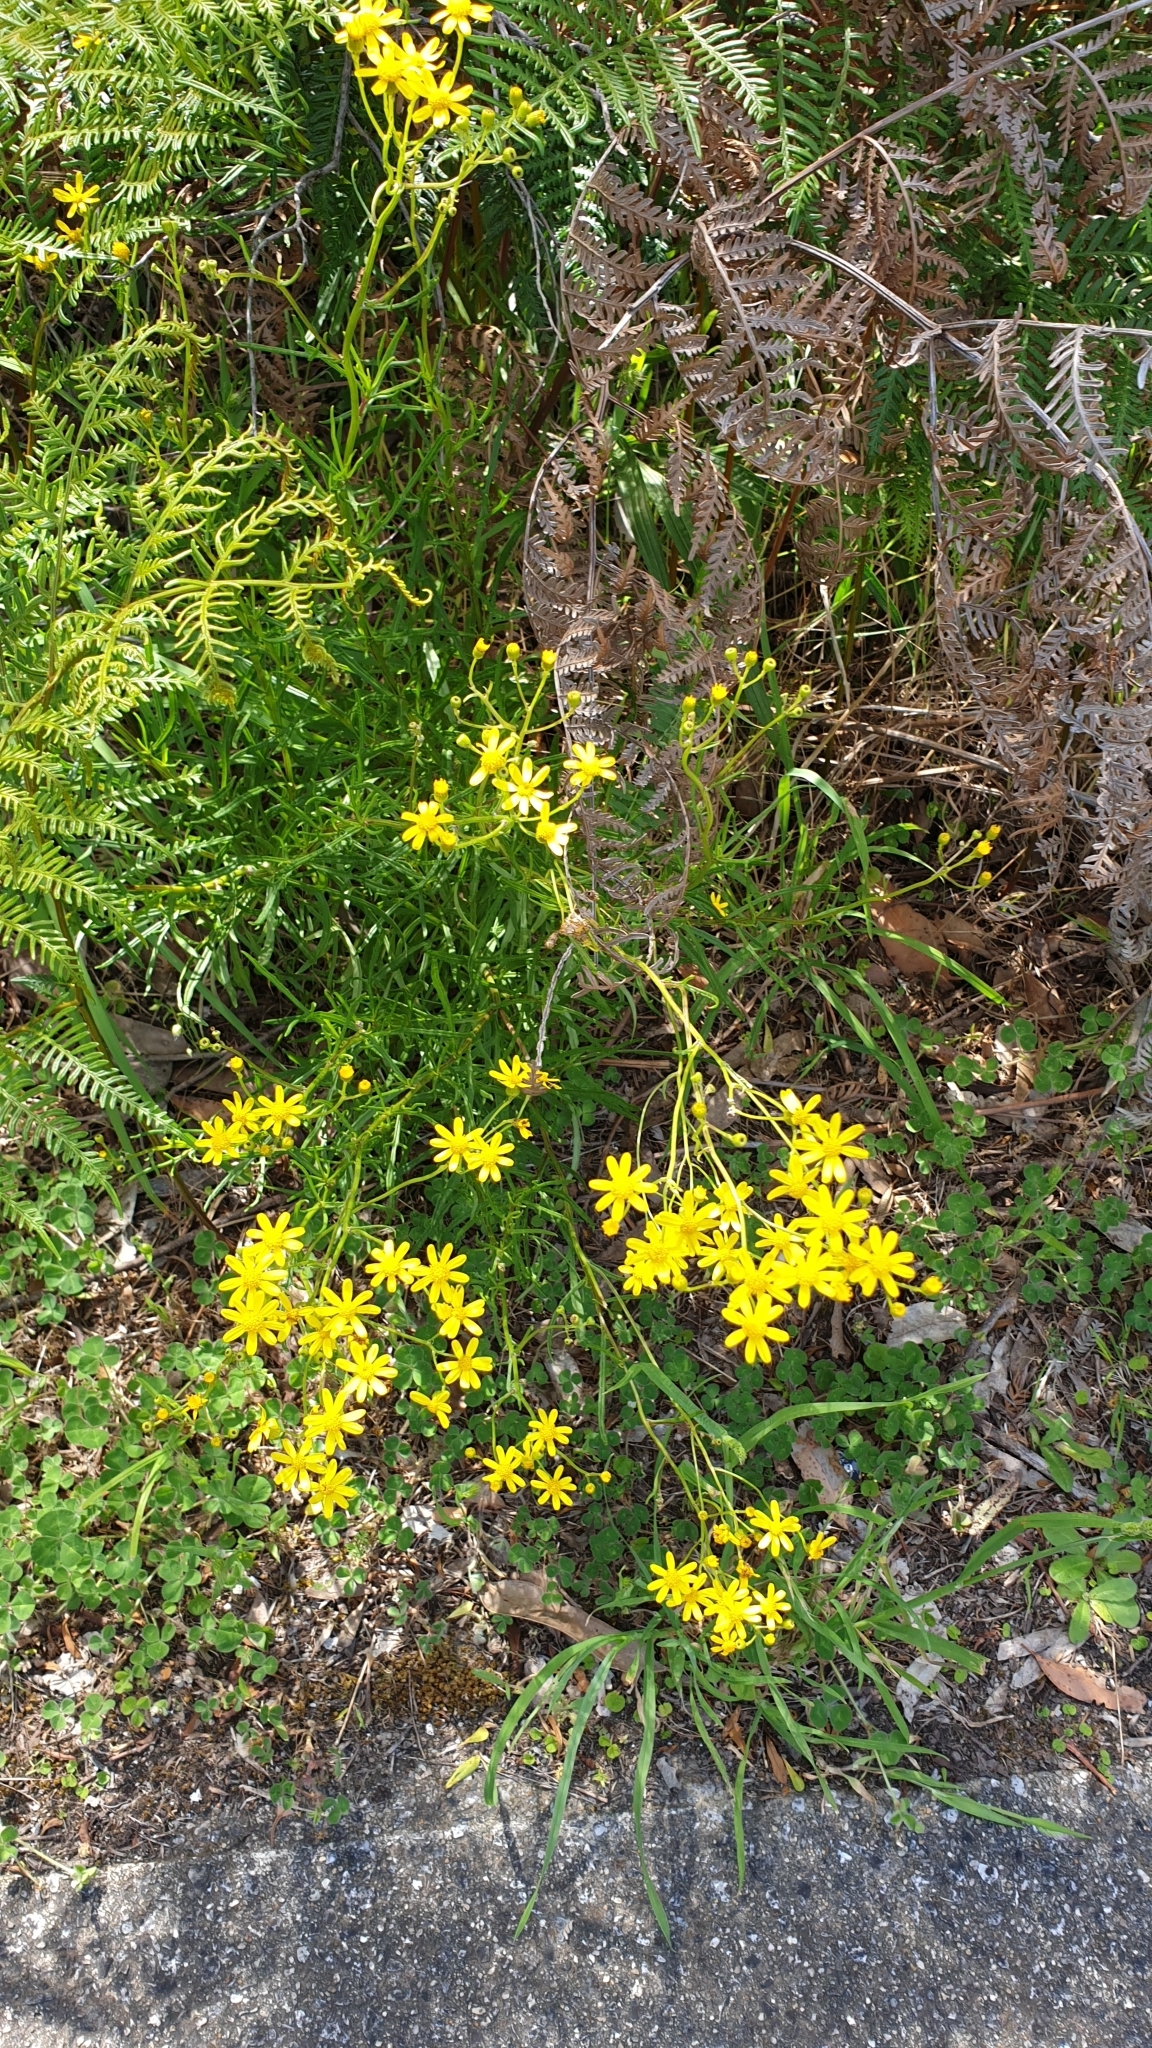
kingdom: Plantae
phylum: Tracheophyta
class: Magnoliopsida
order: Asterales
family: Asteraceae
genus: Senecio
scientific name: Senecio spanomerus
